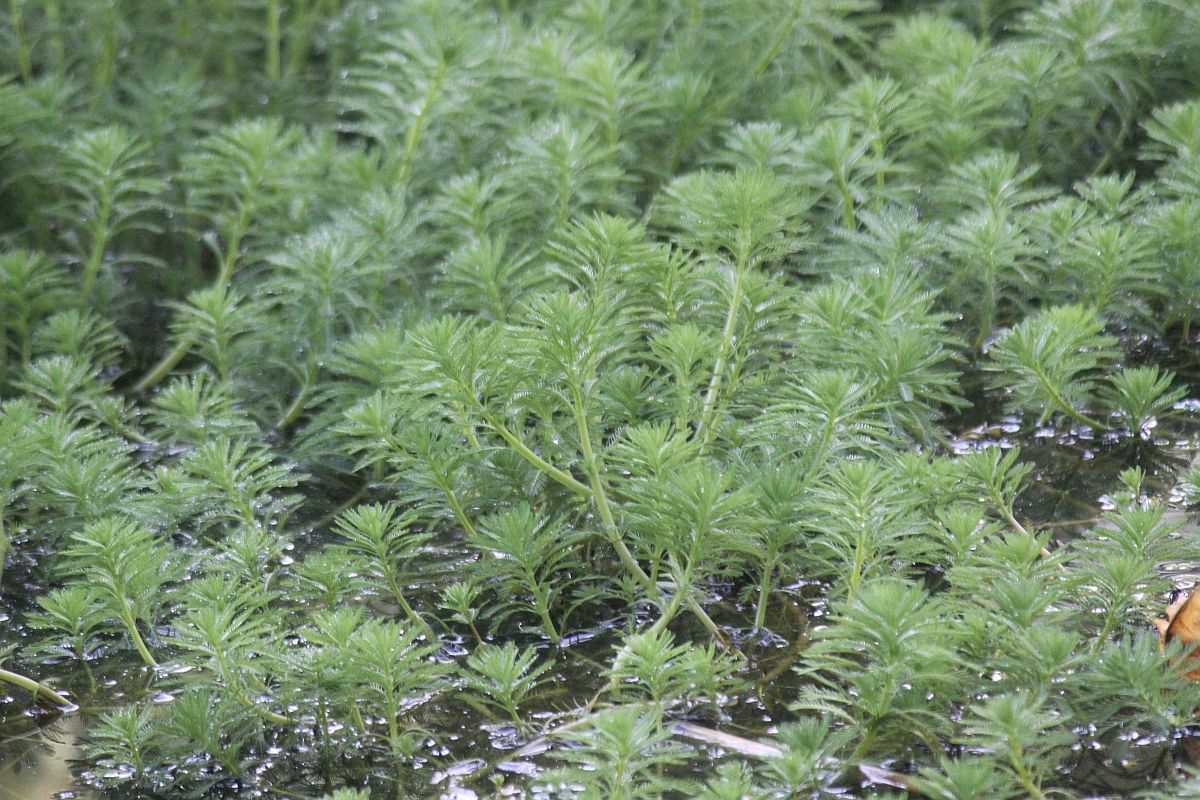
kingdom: Plantae
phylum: Tracheophyta
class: Magnoliopsida
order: Saxifragales
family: Haloragaceae
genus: Myriophyllum
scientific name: Myriophyllum aquaticum
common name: Parrot's feather
